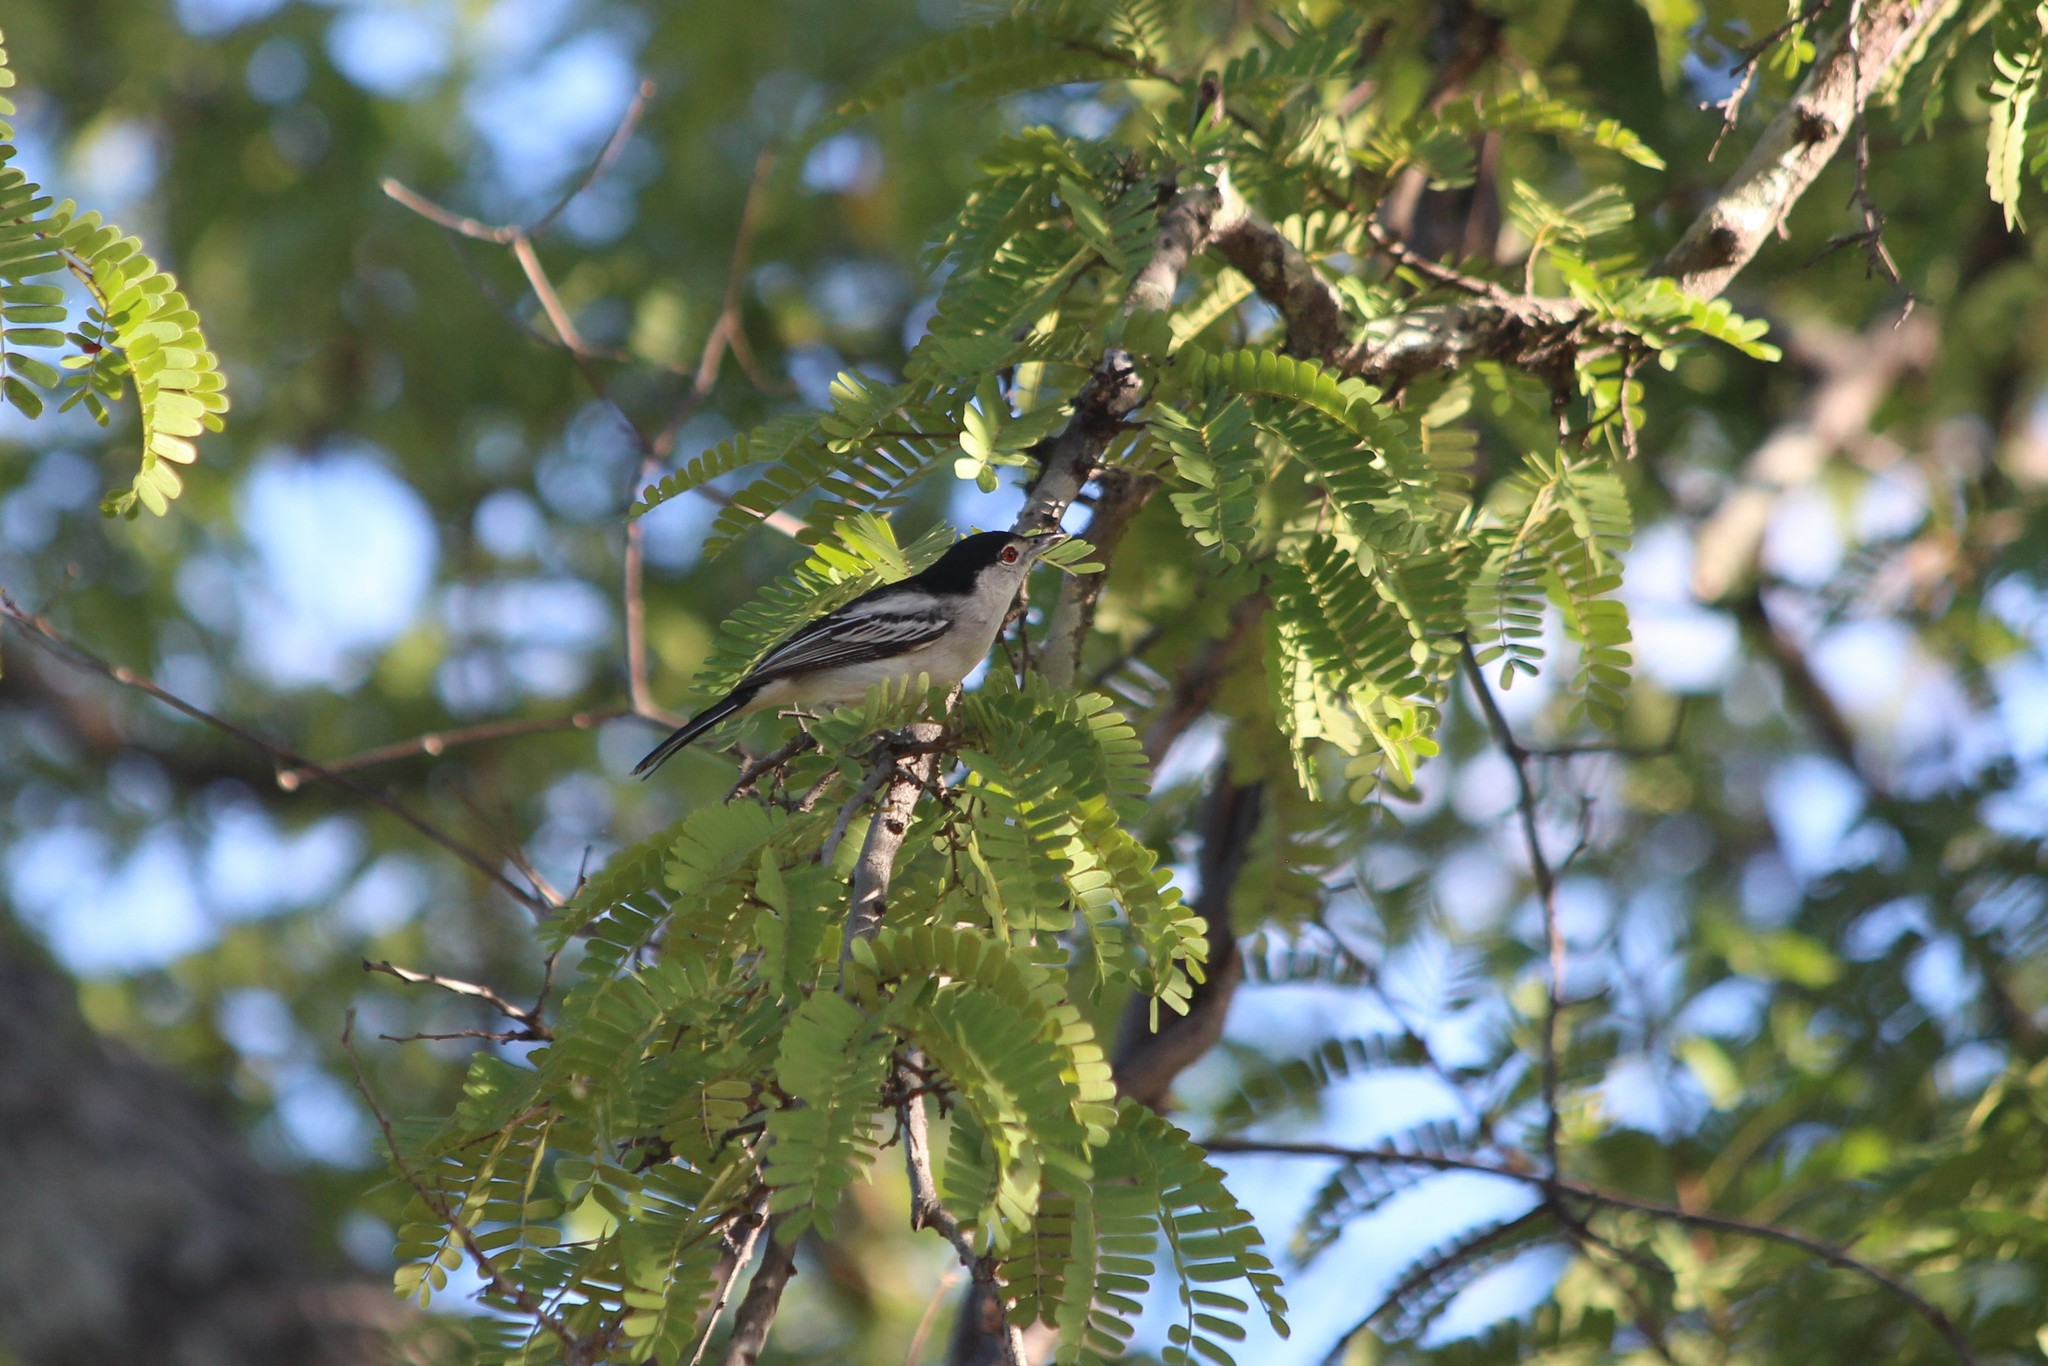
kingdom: Animalia
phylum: Chordata
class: Aves
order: Passeriformes
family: Malaconotidae
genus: Dryoscopus
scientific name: Dryoscopus cubla
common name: Black-backed puffback
